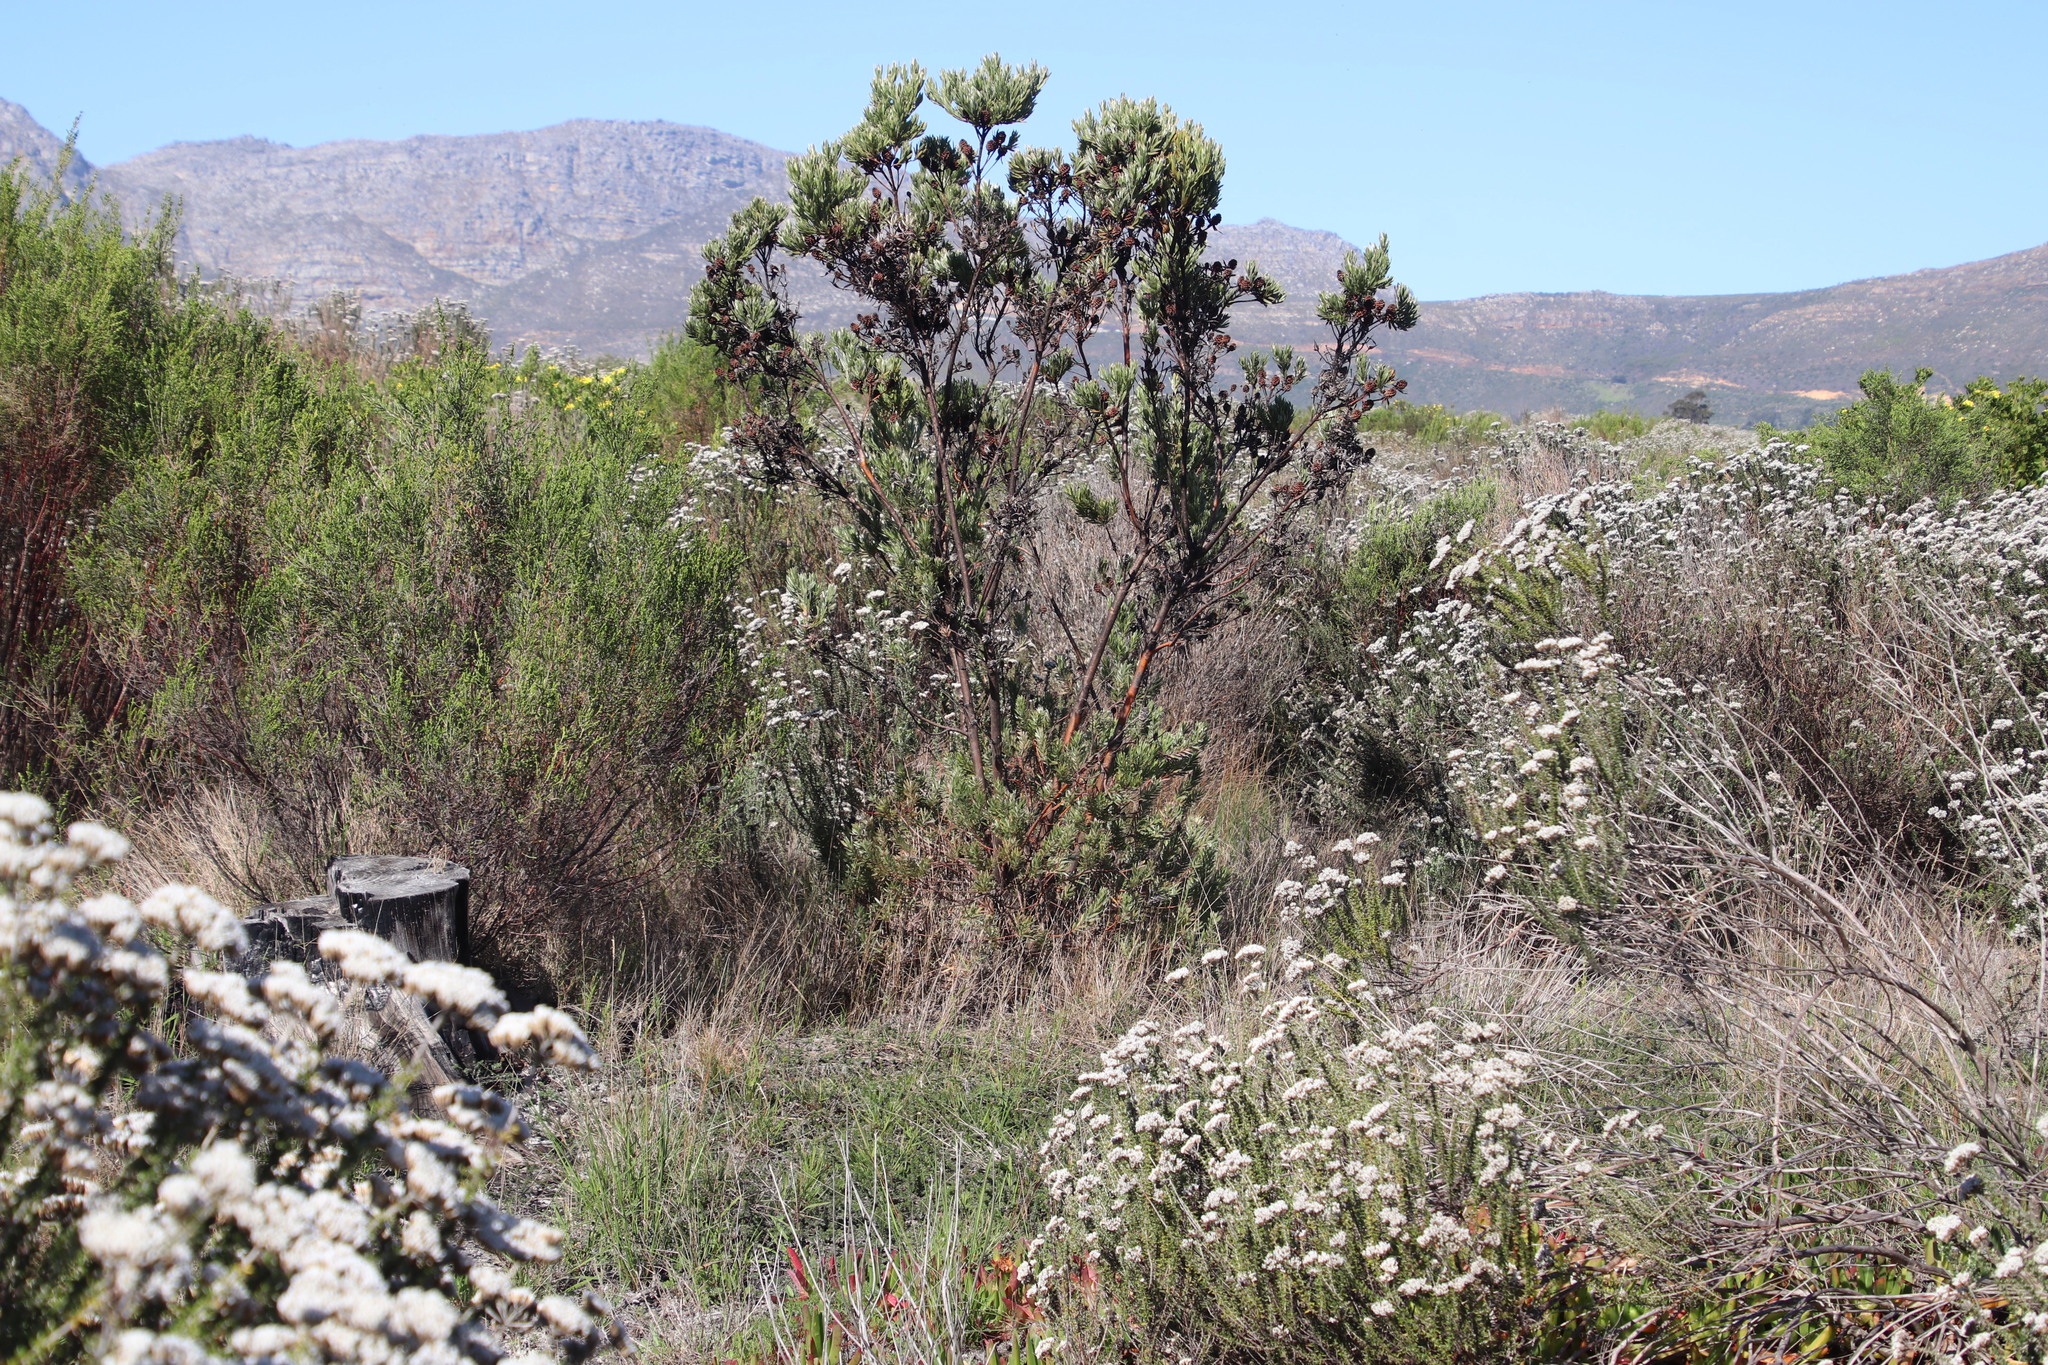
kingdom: Plantae
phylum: Tracheophyta
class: Magnoliopsida
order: Proteales
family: Proteaceae
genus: Leucadendron
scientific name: Leucadendron floridum
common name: Flats conebush
